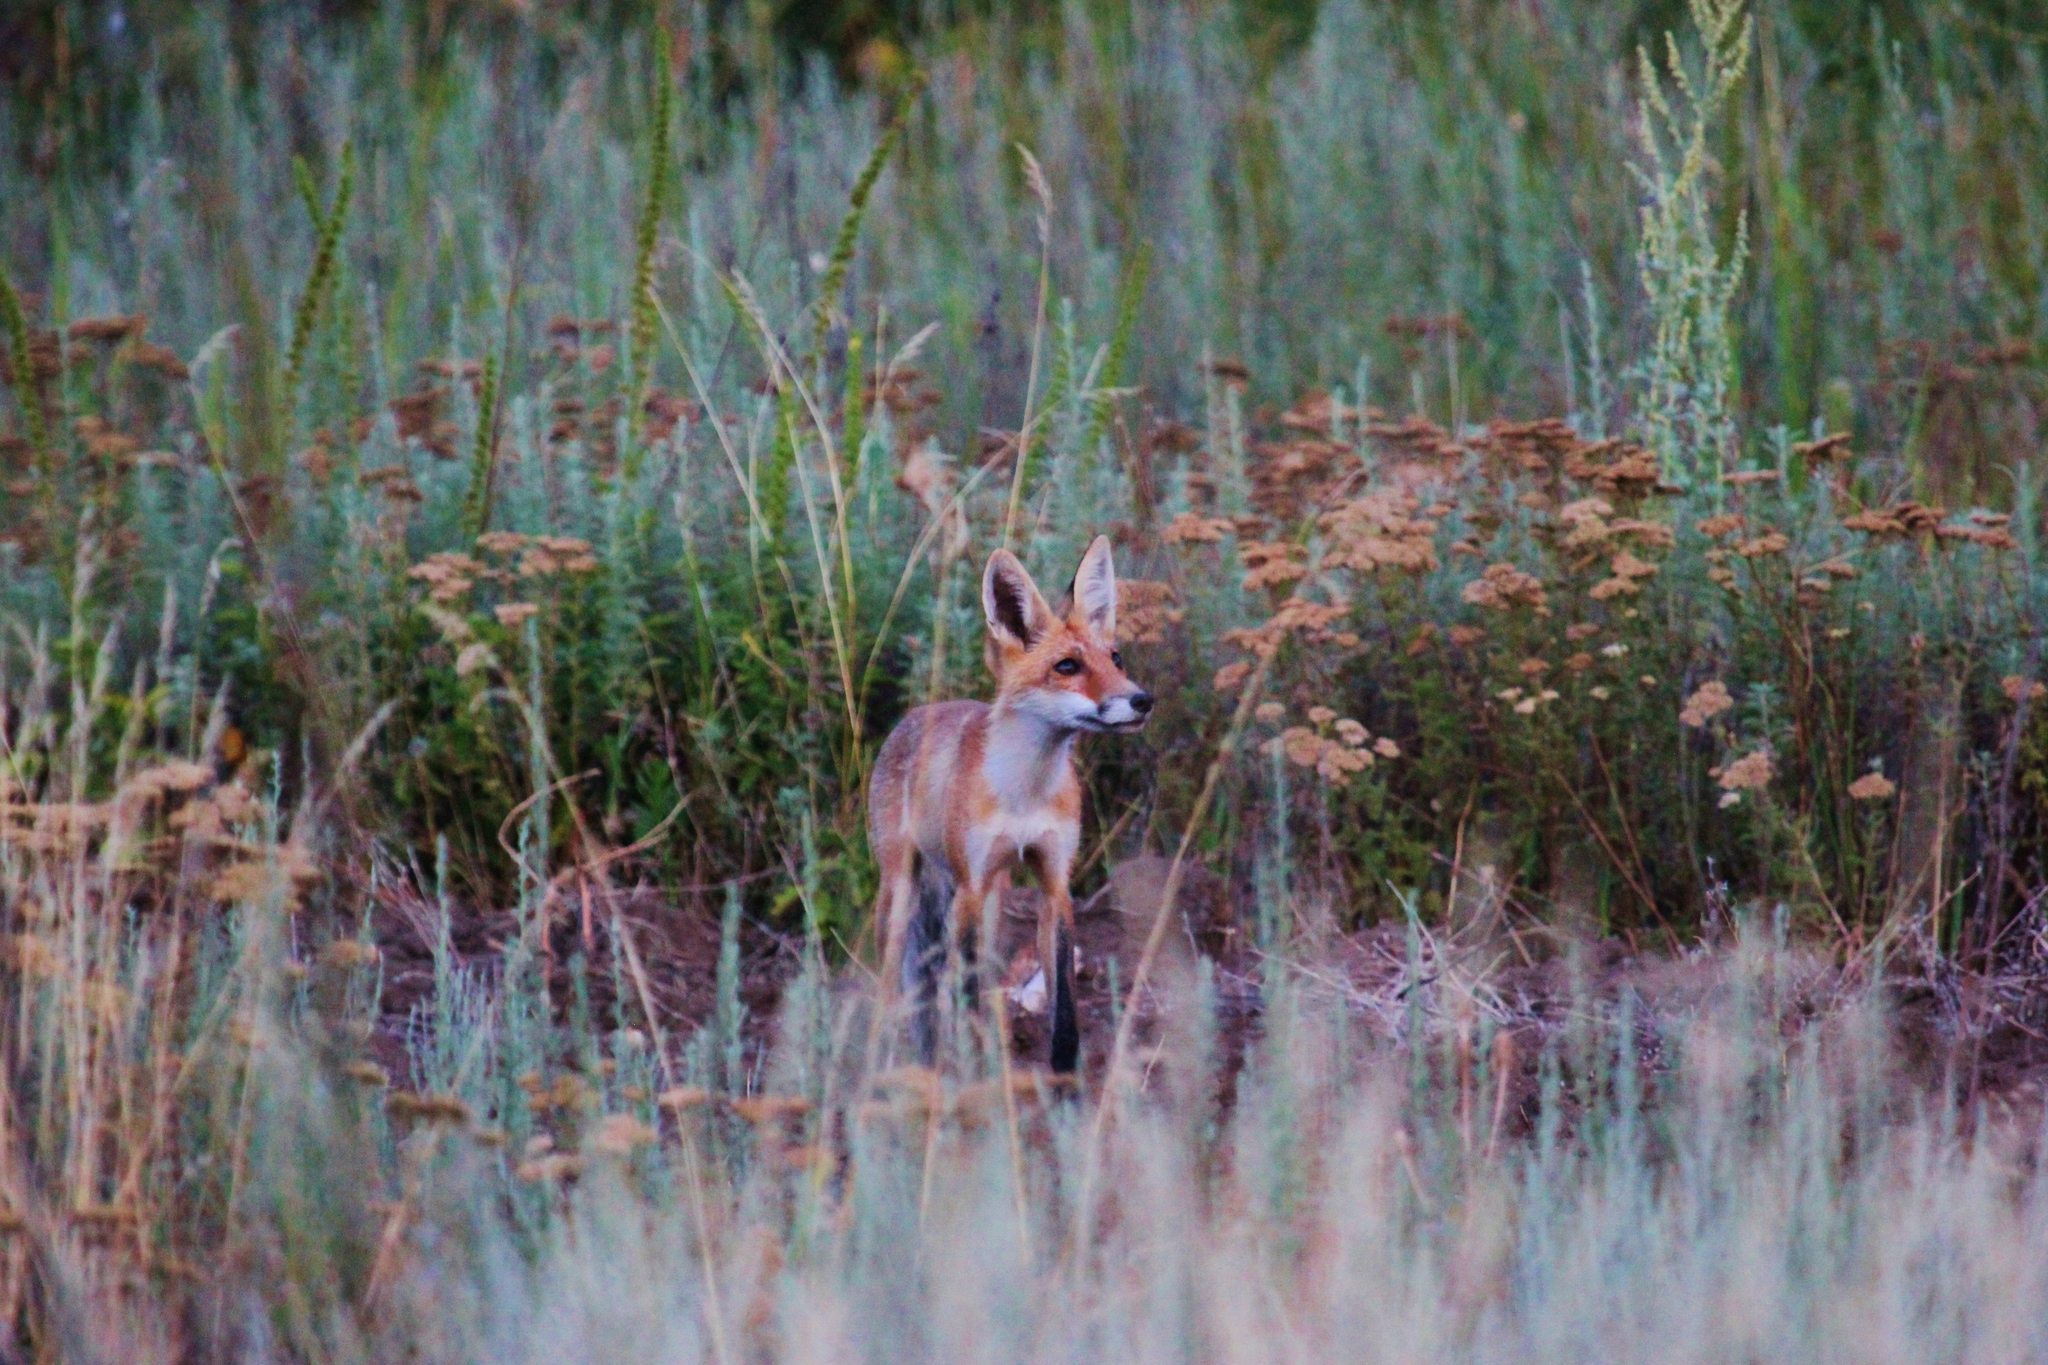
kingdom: Animalia
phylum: Chordata
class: Mammalia
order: Carnivora
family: Canidae
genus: Vulpes
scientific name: Vulpes vulpes
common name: Red fox
